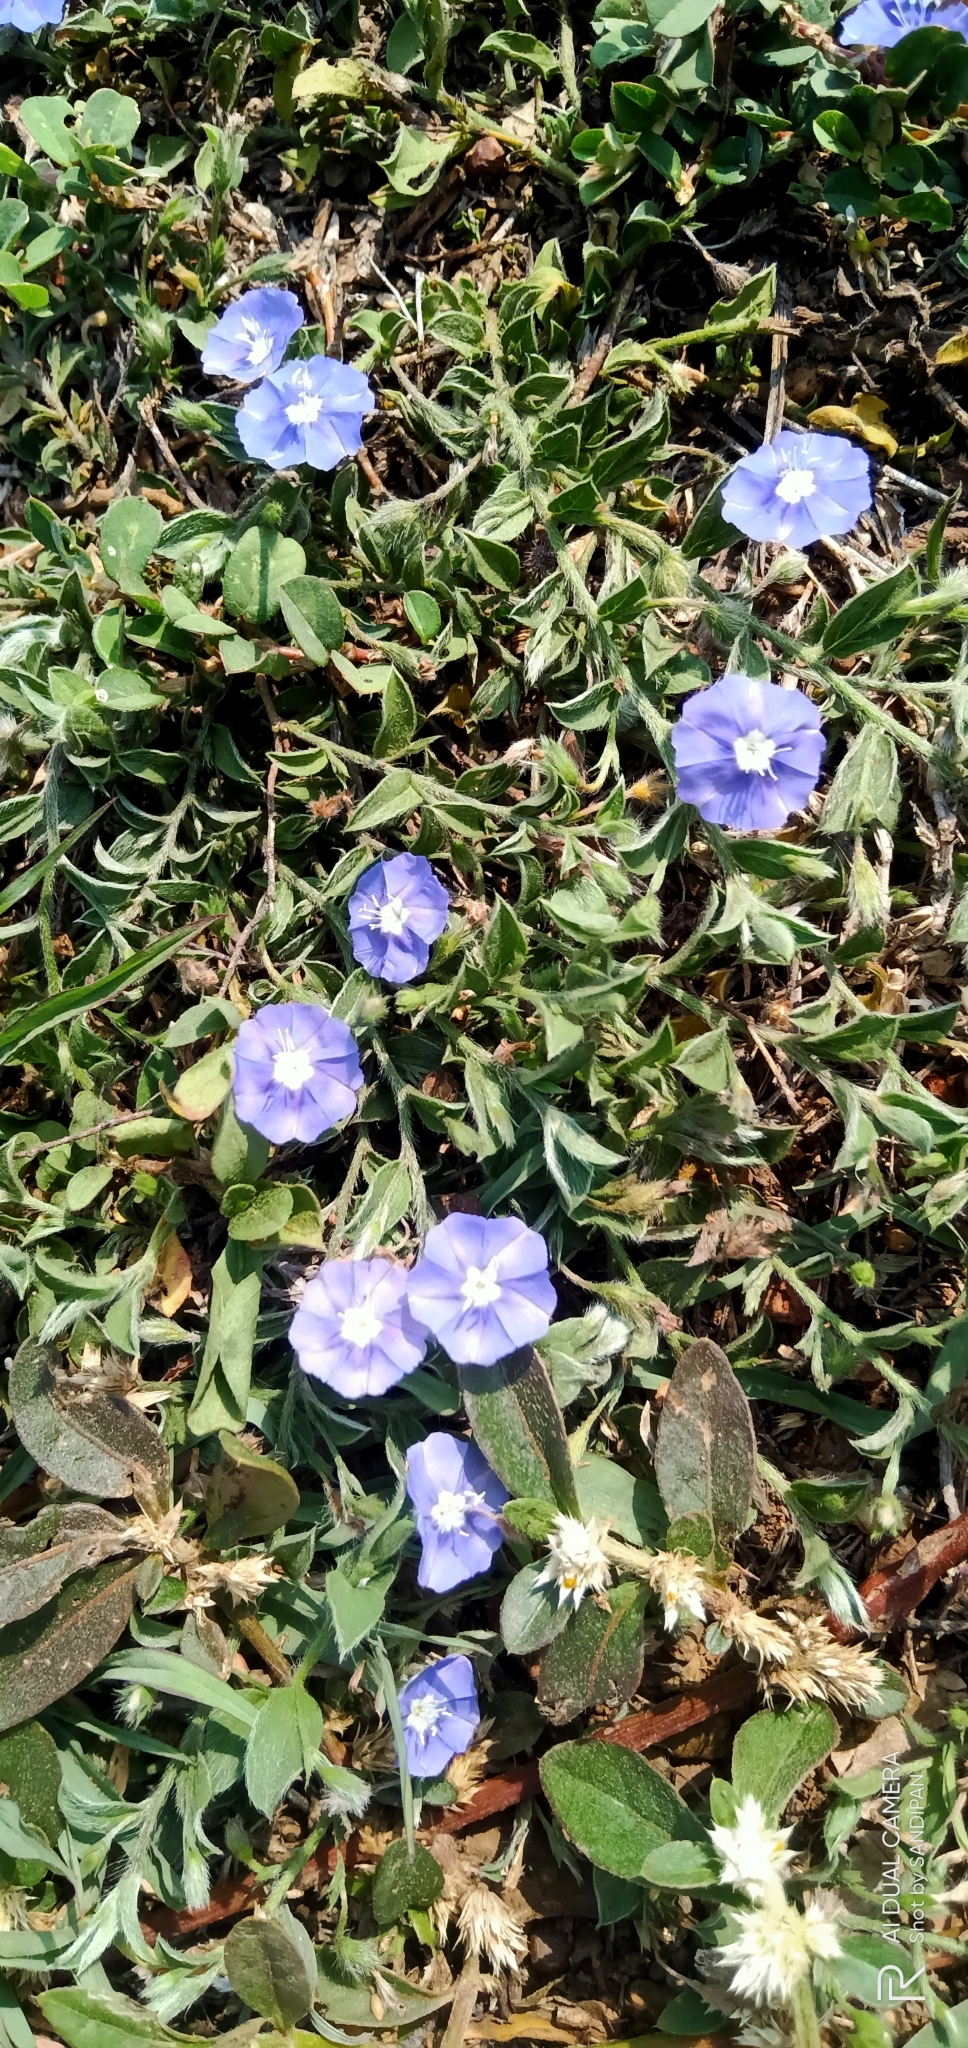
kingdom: Plantae
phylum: Tracheophyta
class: Magnoliopsida
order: Solanales
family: Convolvulaceae
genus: Evolvulus
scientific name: Evolvulus alsinoides
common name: Slender dwarf morning-glory
